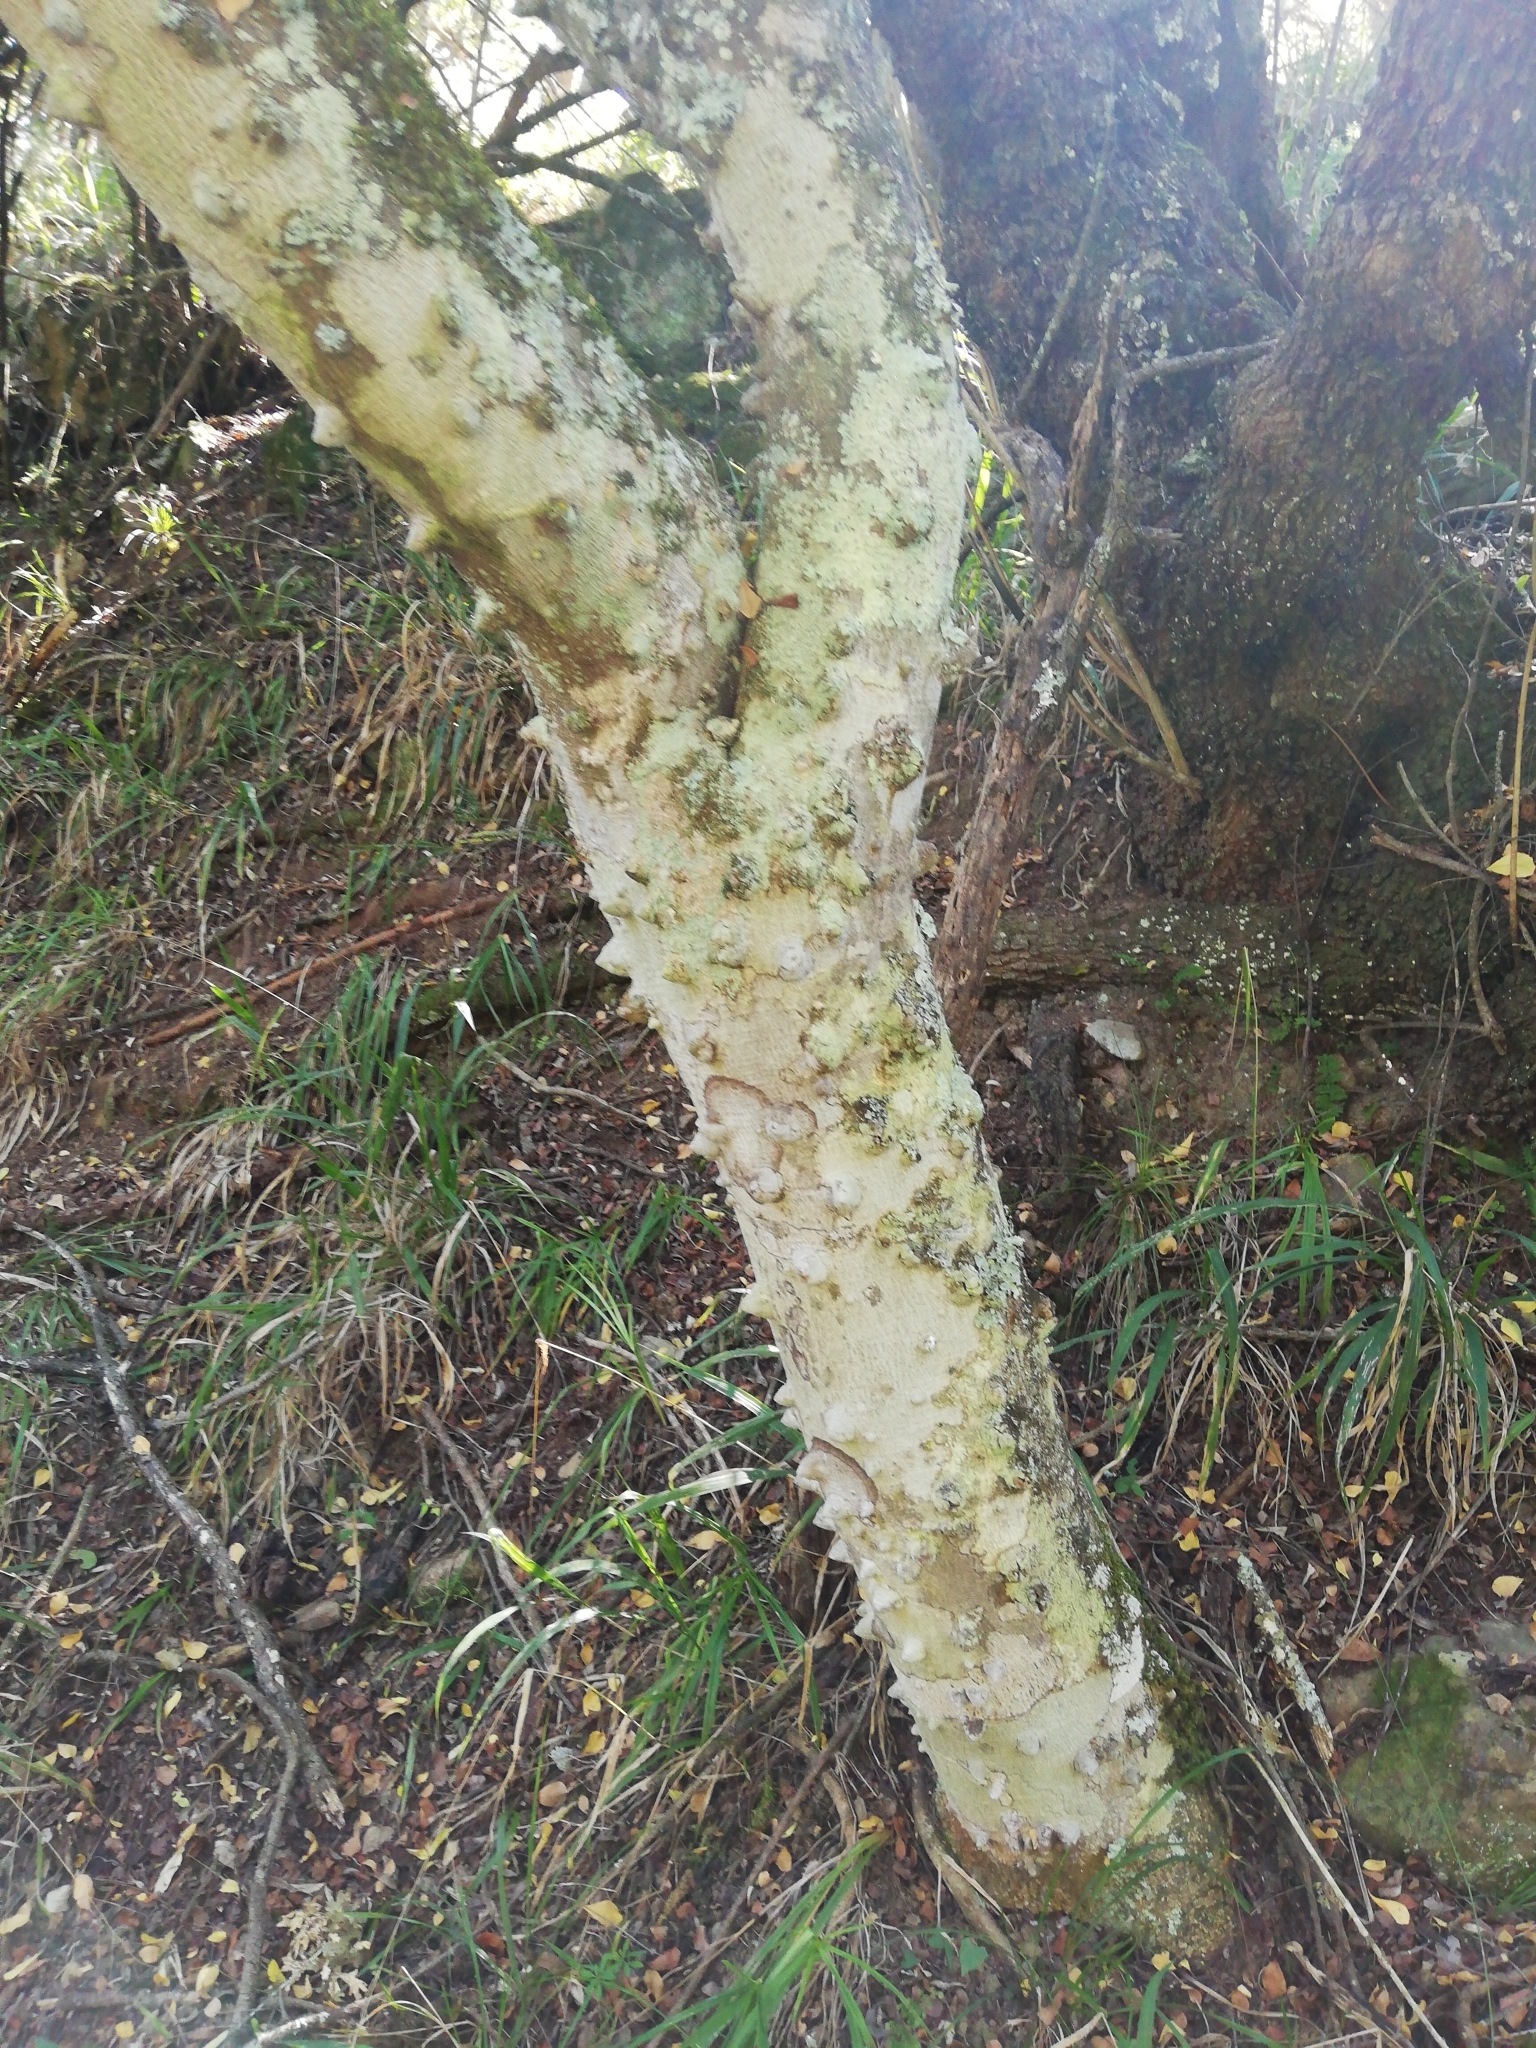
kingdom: Plantae
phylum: Tracheophyta
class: Magnoliopsida
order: Sapindales
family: Rutaceae
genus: Zanthoxylum
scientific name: Zanthoxylum capense
